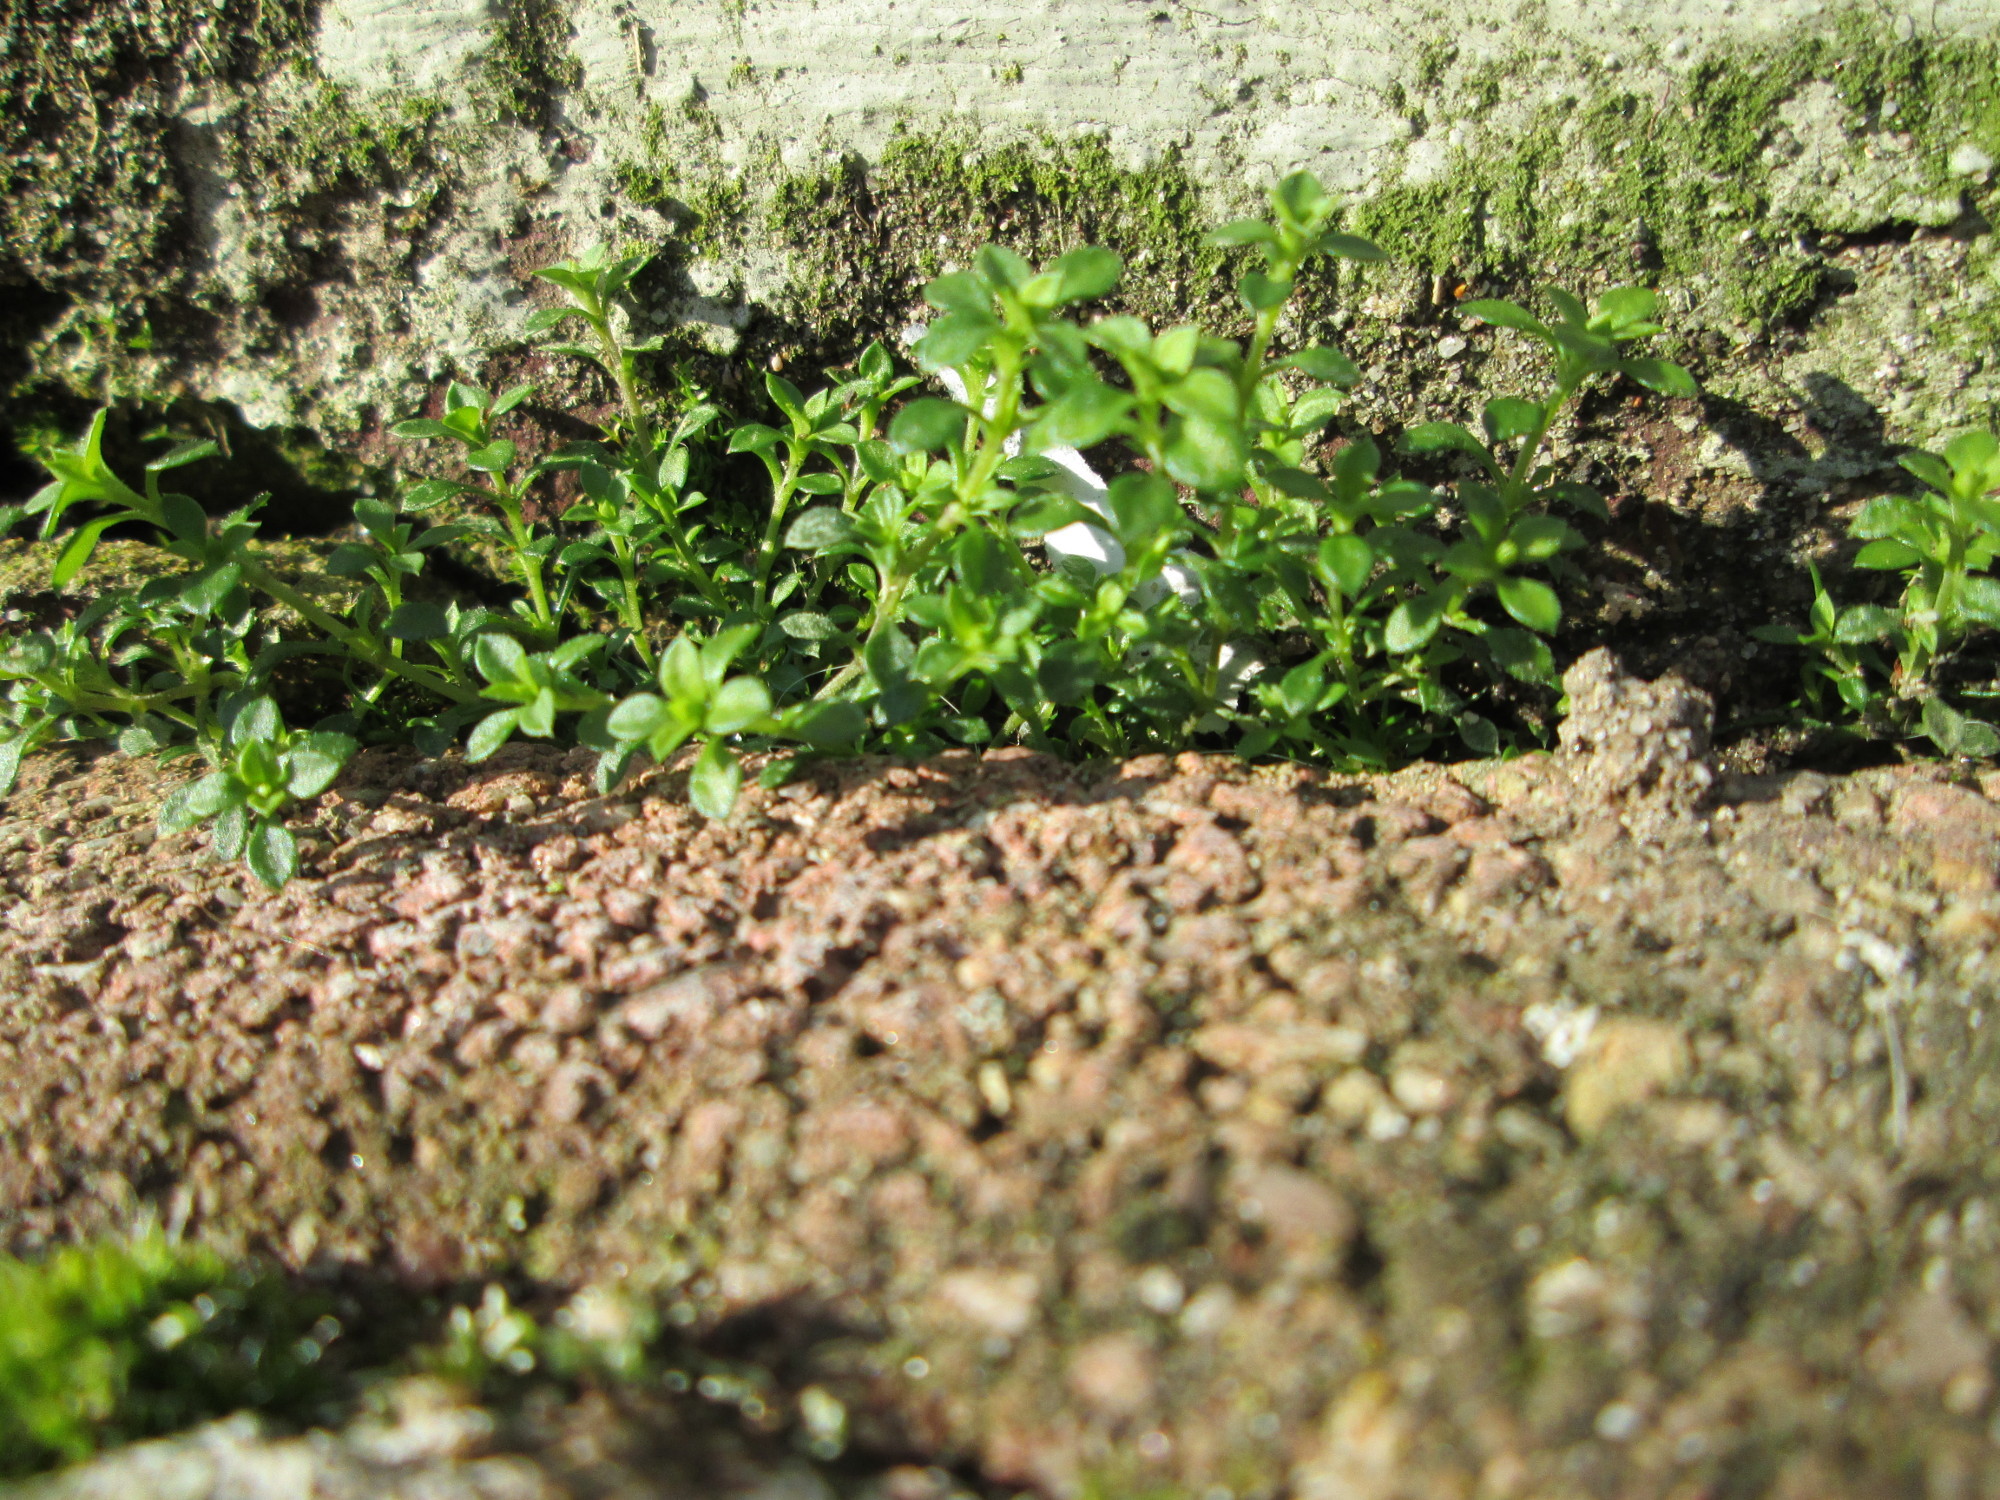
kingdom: Plantae
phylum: Tracheophyta
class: Magnoliopsida
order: Caryophyllales
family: Caryophyllaceae
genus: Arenaria
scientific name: Arenaria serpyllifolia
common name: Thyme-leaved sandwort
